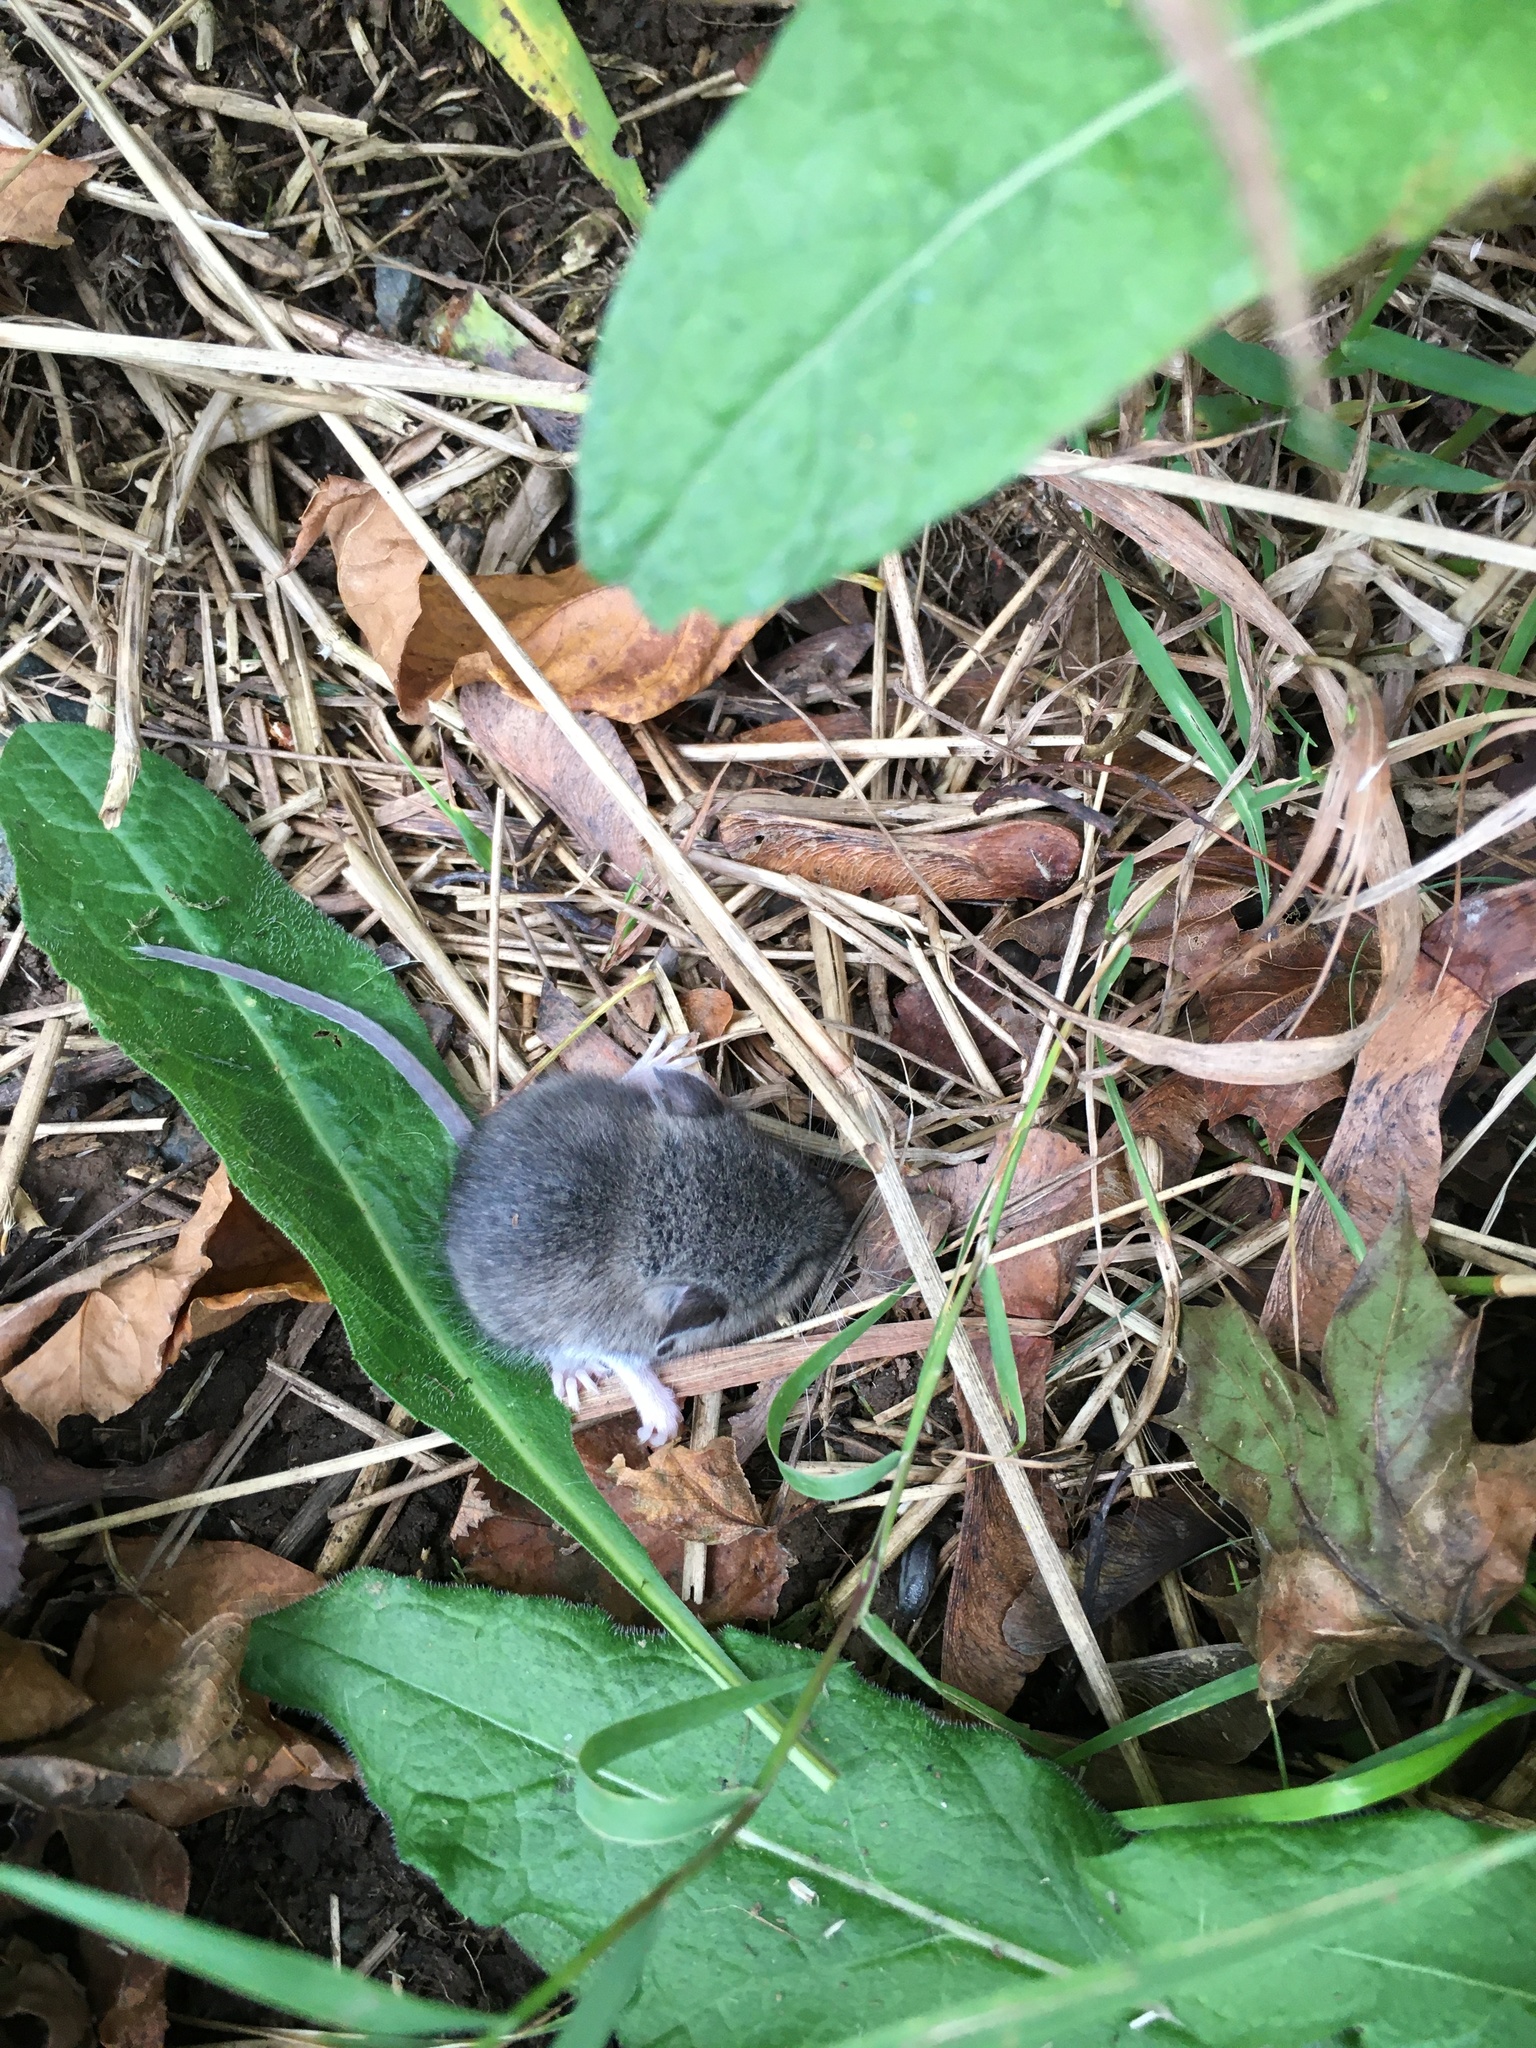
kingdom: Animalia
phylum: Chordata
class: Mammalia
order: Rodentia
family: Cricetidae
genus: Peromyscus
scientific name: Peromyscus leucopus
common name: White-footed deermouse
